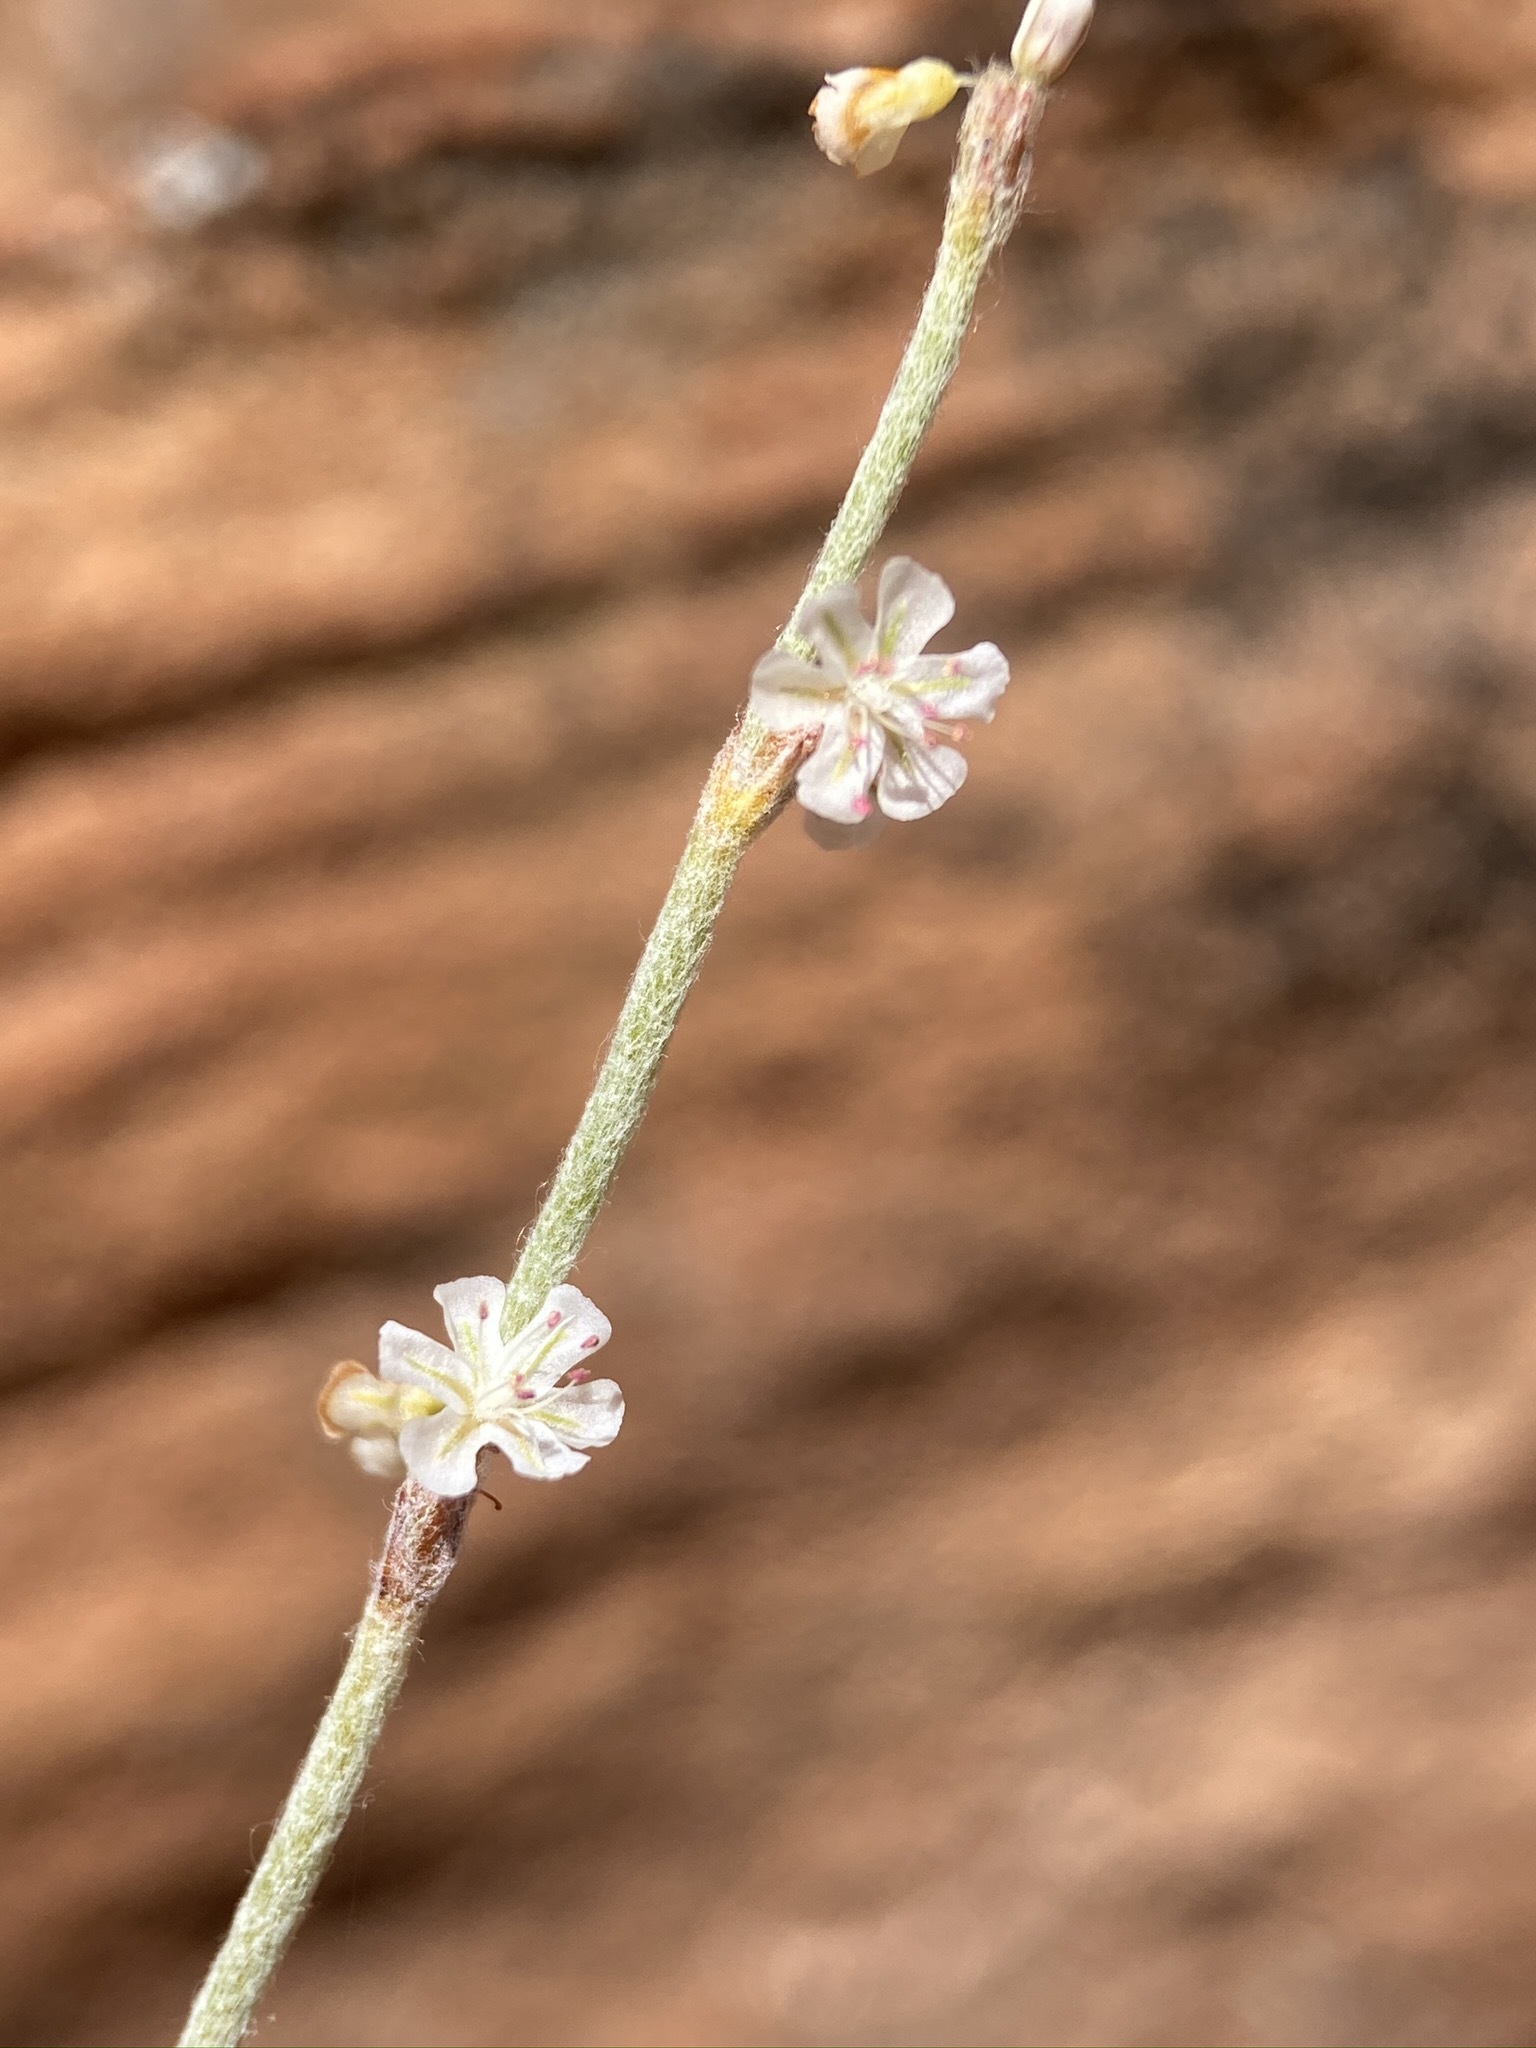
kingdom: Plantae
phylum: Tracheophyta
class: Magnoliopsida
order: Caryophyllales
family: Polygonaceae
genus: Eriogonum
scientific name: Eriogonum palmerianum
